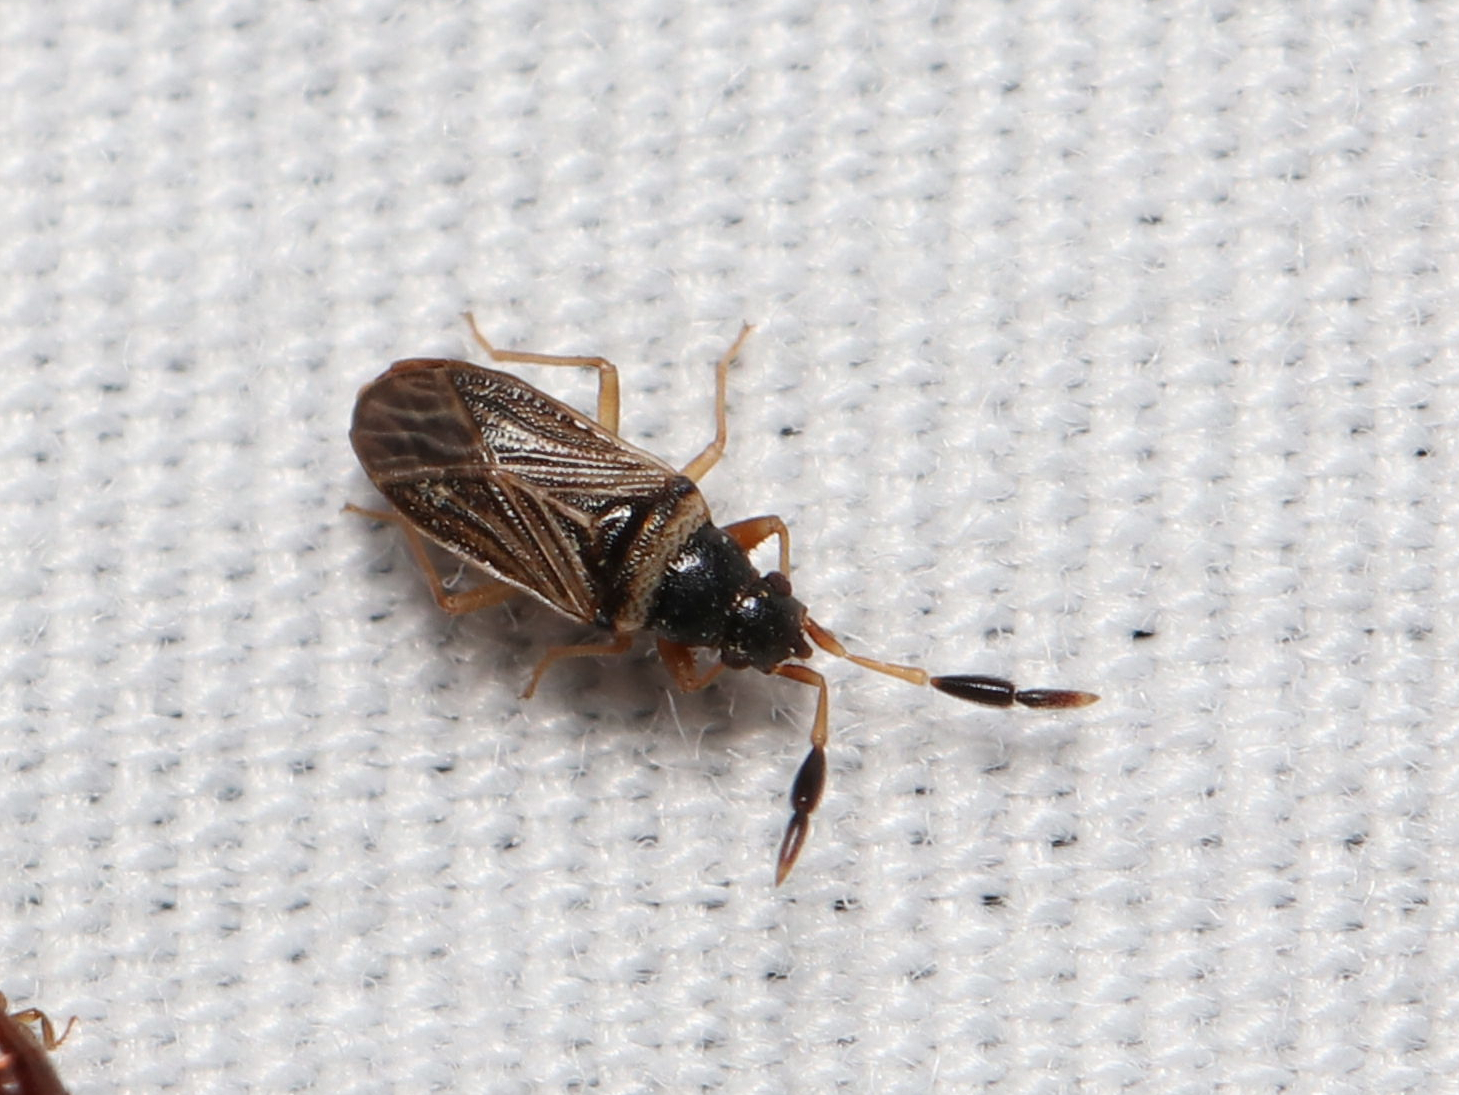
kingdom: Animalia
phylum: Arthropoda
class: Insecta
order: Hemiptera
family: Rhyparochromidae
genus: Ptochiomera
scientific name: Ptochiomera nodosa
